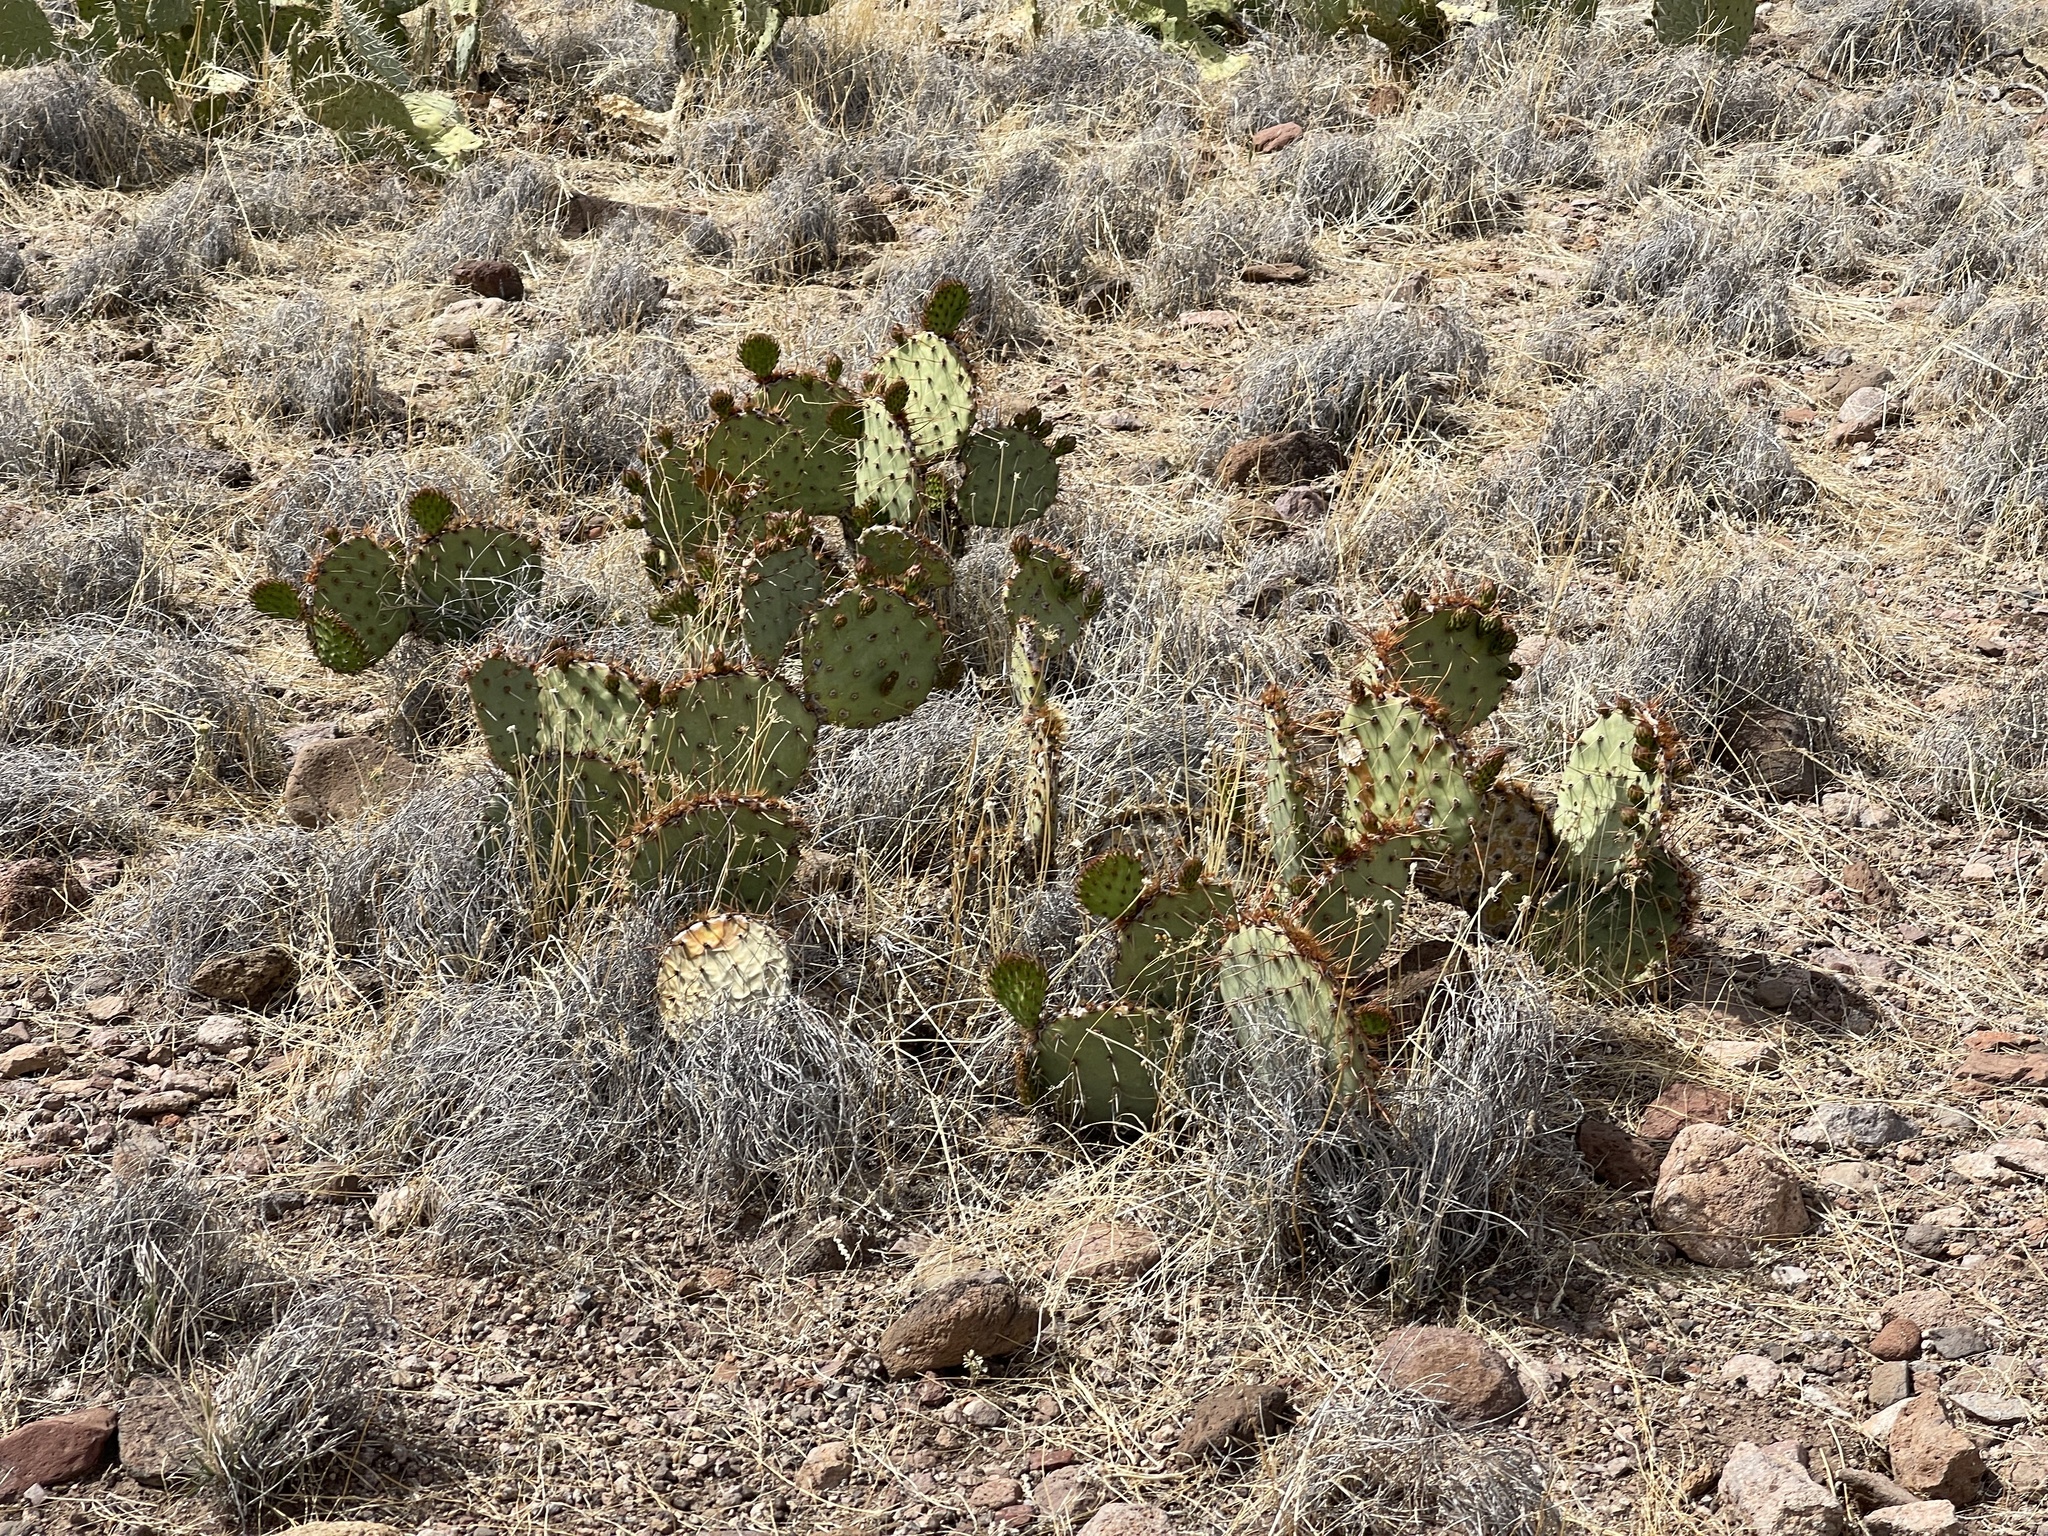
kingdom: Plantae
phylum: Tracheophyta
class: Magnoliopsida
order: Caryophyllales
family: Cactaceae
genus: Opuntia
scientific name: Opuntia phaeacantha
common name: New mexico prickly-pear
